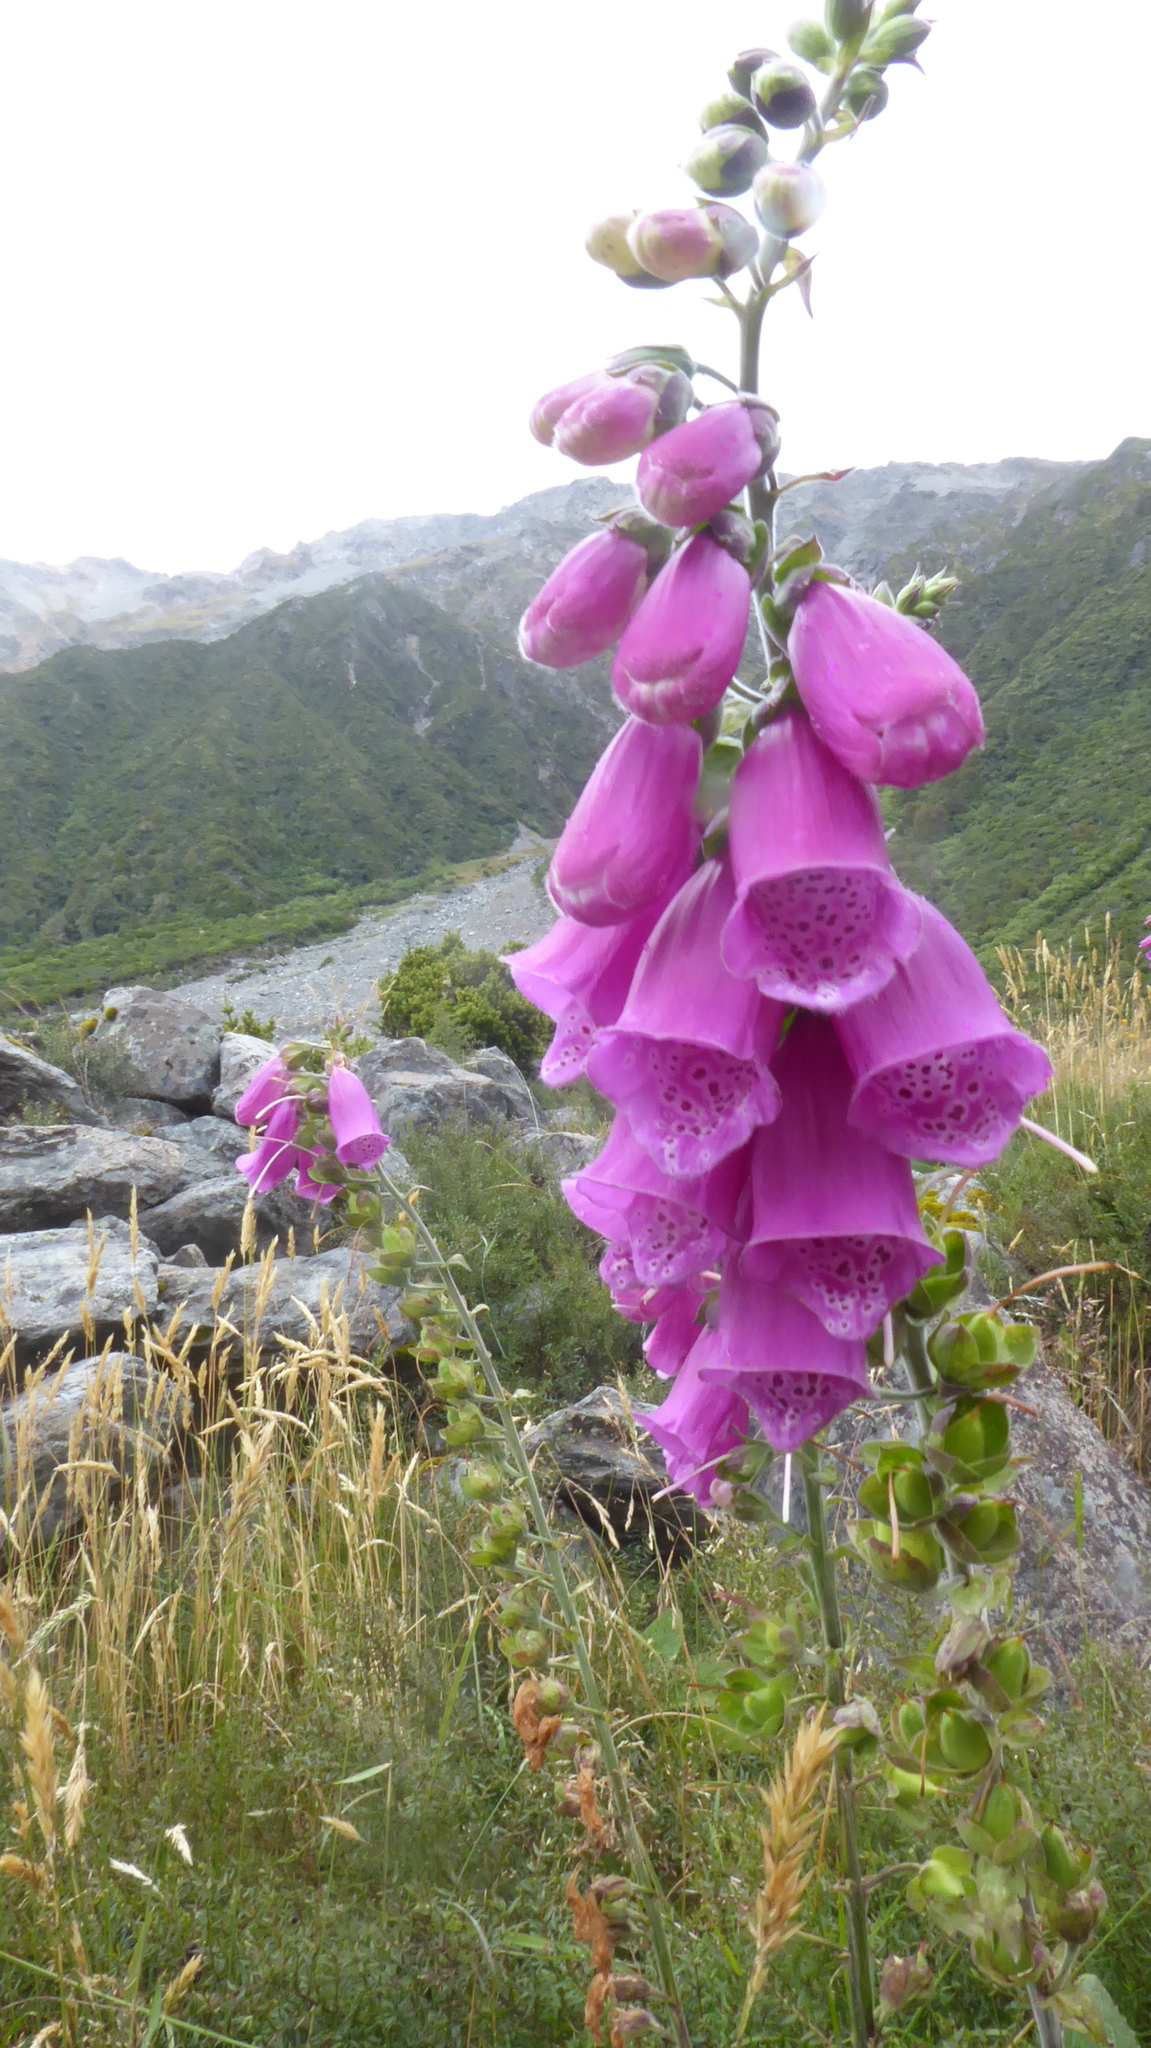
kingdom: Plantae
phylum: Tracheophyta
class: Magnoliopsida
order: Lamiales
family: Plantaginaceae
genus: Digitalis
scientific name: Digitalis purpurea
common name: Foxglove
